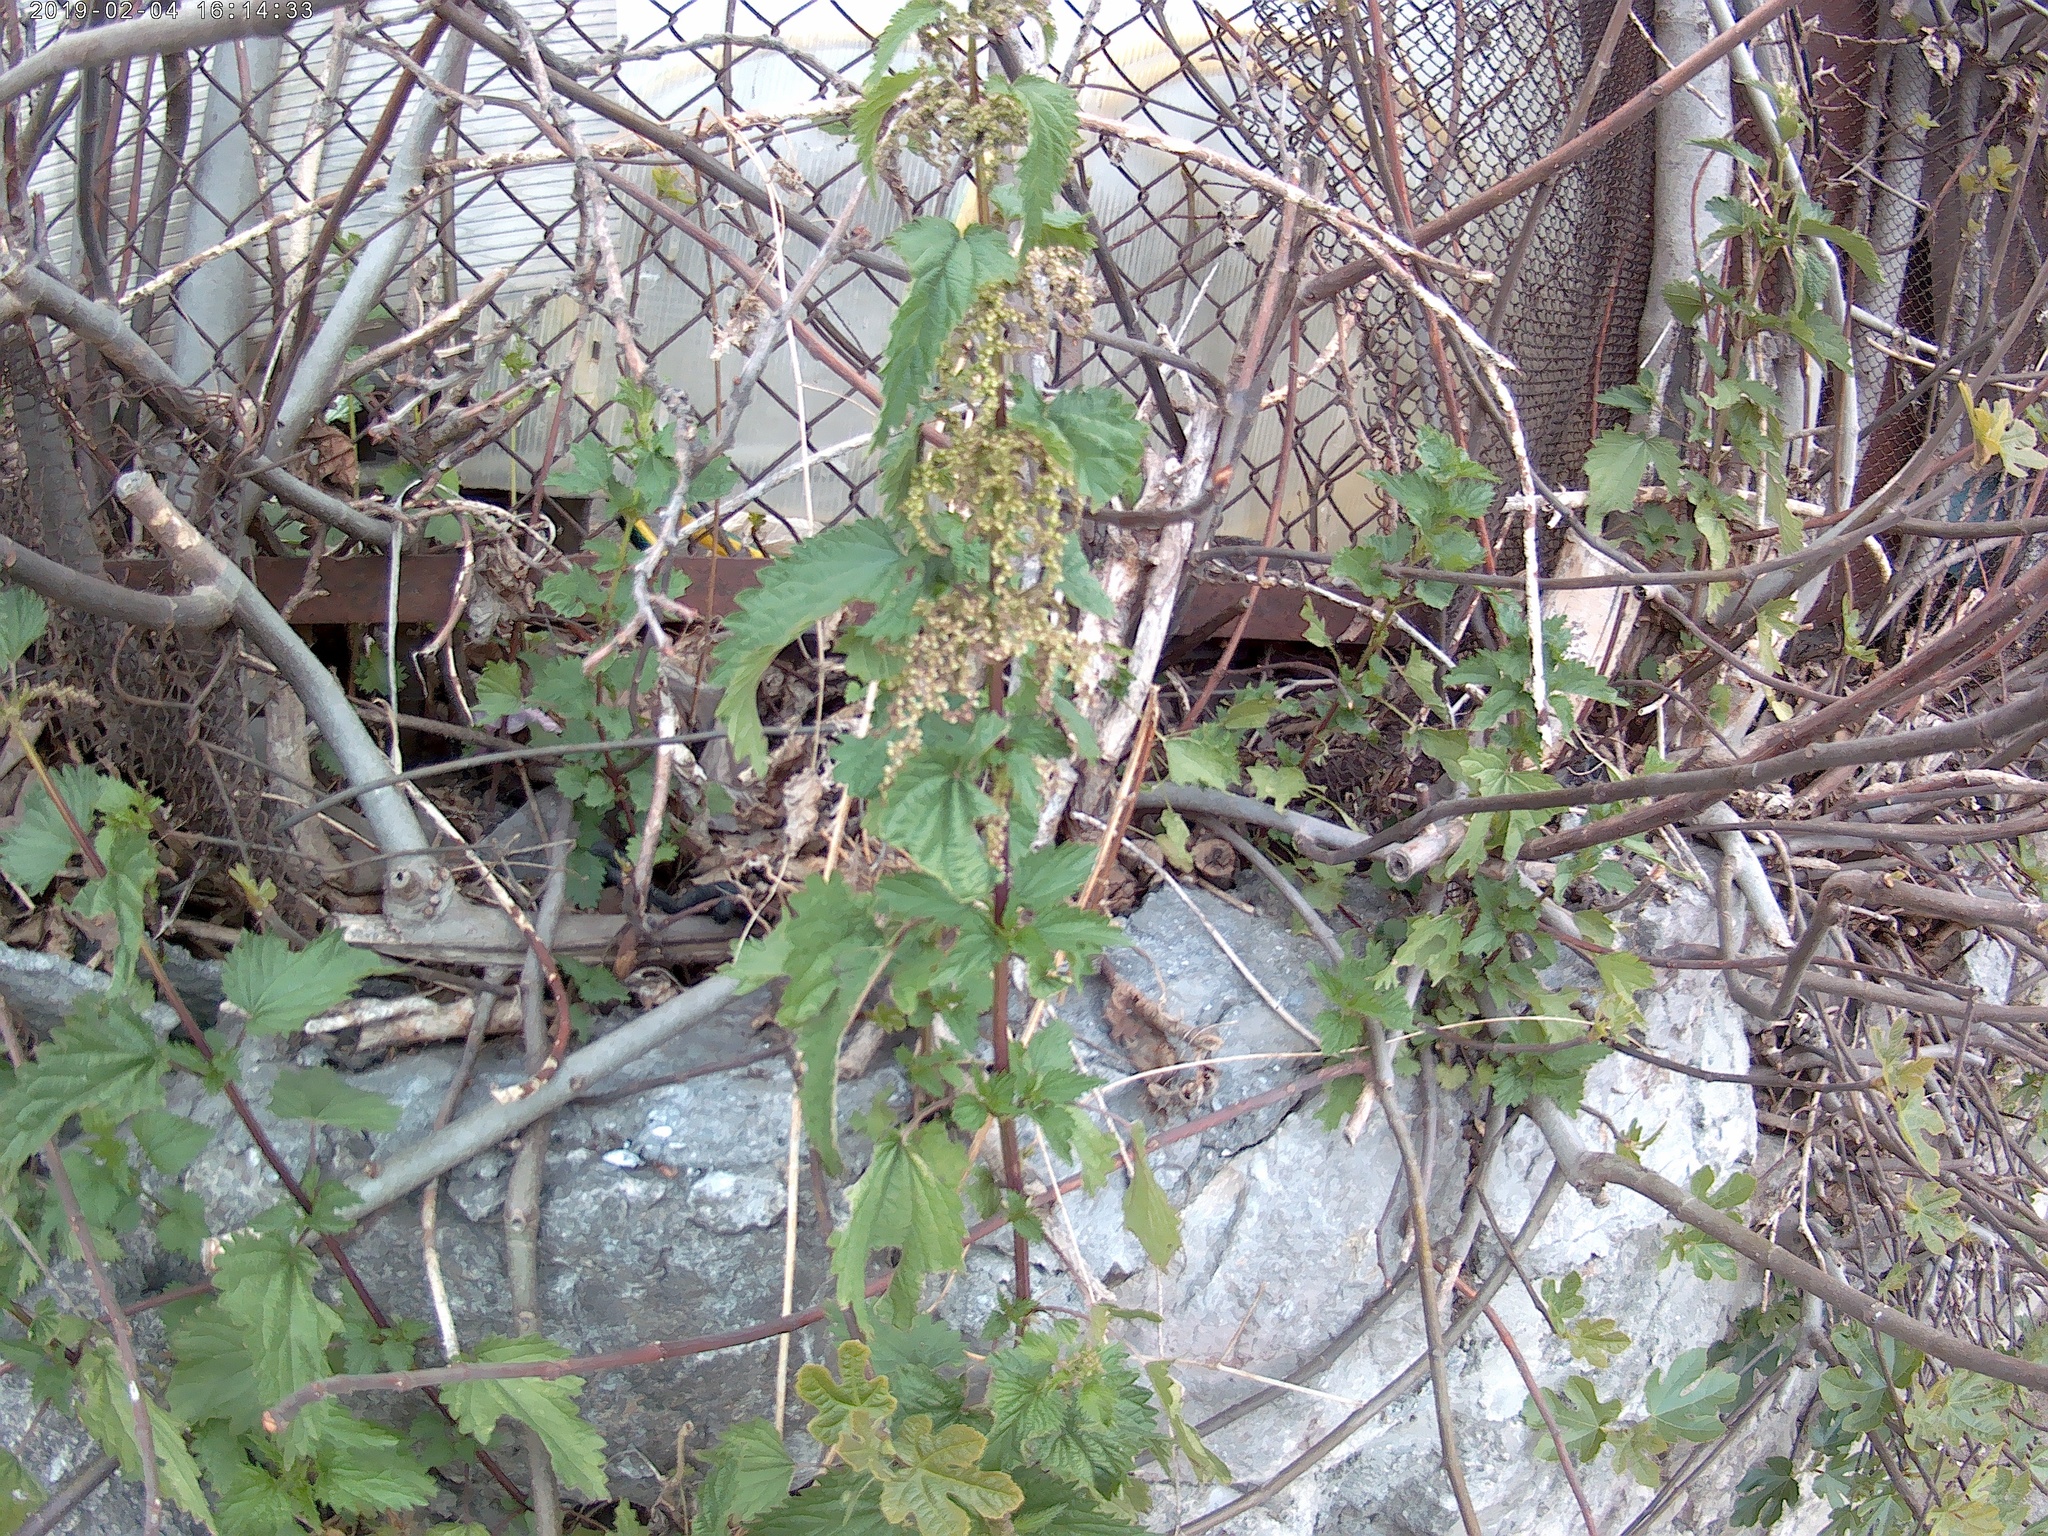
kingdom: Plantae
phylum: Tracheophyta
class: Magnoliopsida
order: Rosales
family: Urticaceae
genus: Urtica
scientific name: Urtica dioica
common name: Common nettle
